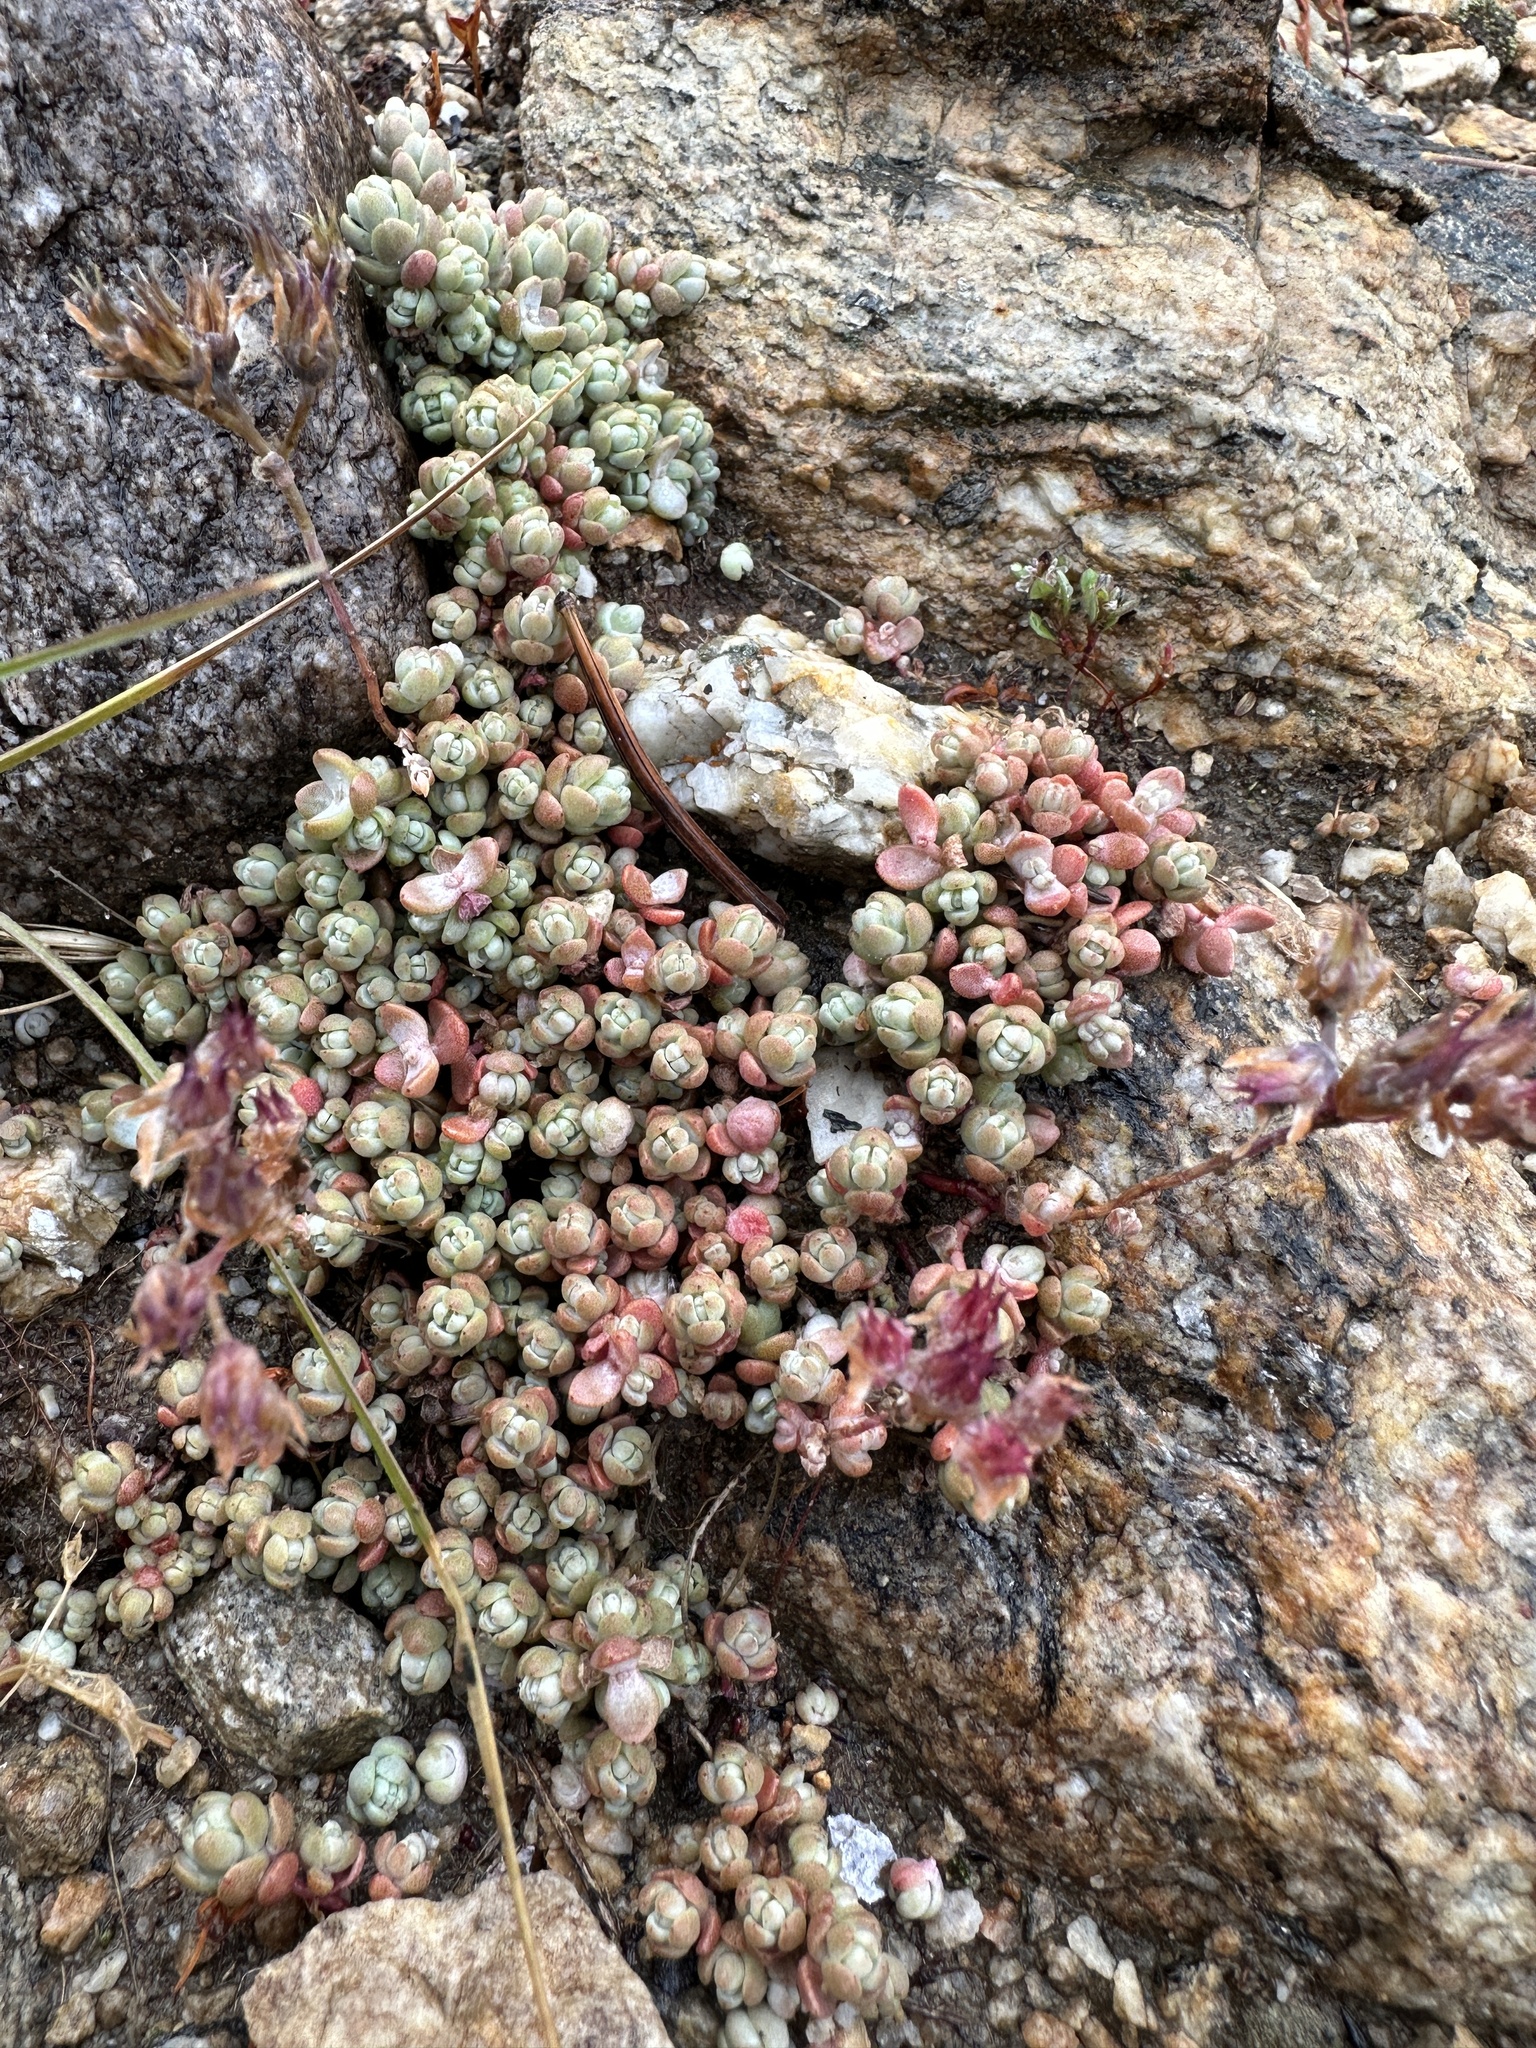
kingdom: Plantae
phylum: Tracheophyta
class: Magnoliopsida
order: Saxifragales
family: Crassulaceae
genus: Sedum
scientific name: Sedum debile
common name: Weak-stem stonecrop
